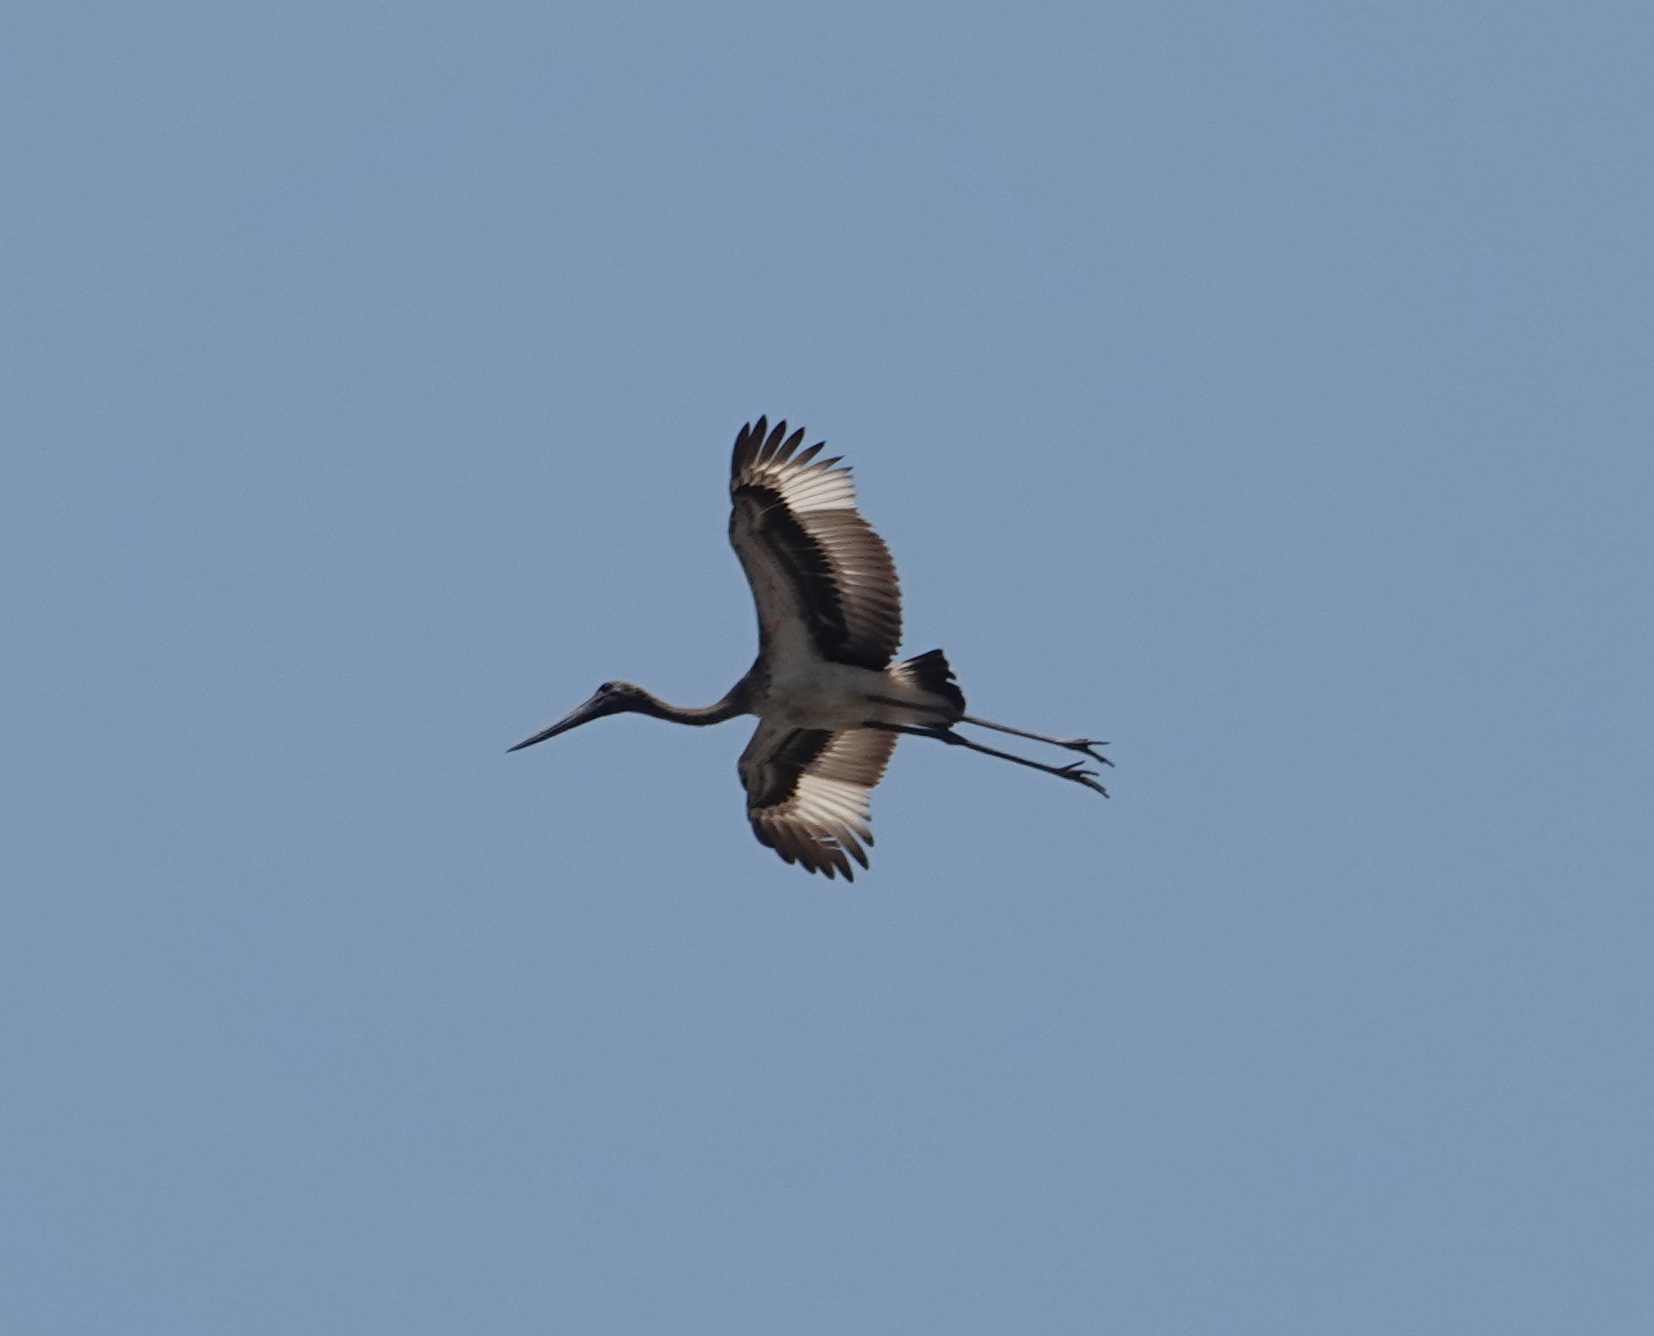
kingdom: Animalia
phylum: Chordata
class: Aves
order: Ciconiiformes
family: Ciconiidae
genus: Ephippiorhynchus
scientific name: Ephippiorhynchus asiaticus
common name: Black-necked stork
